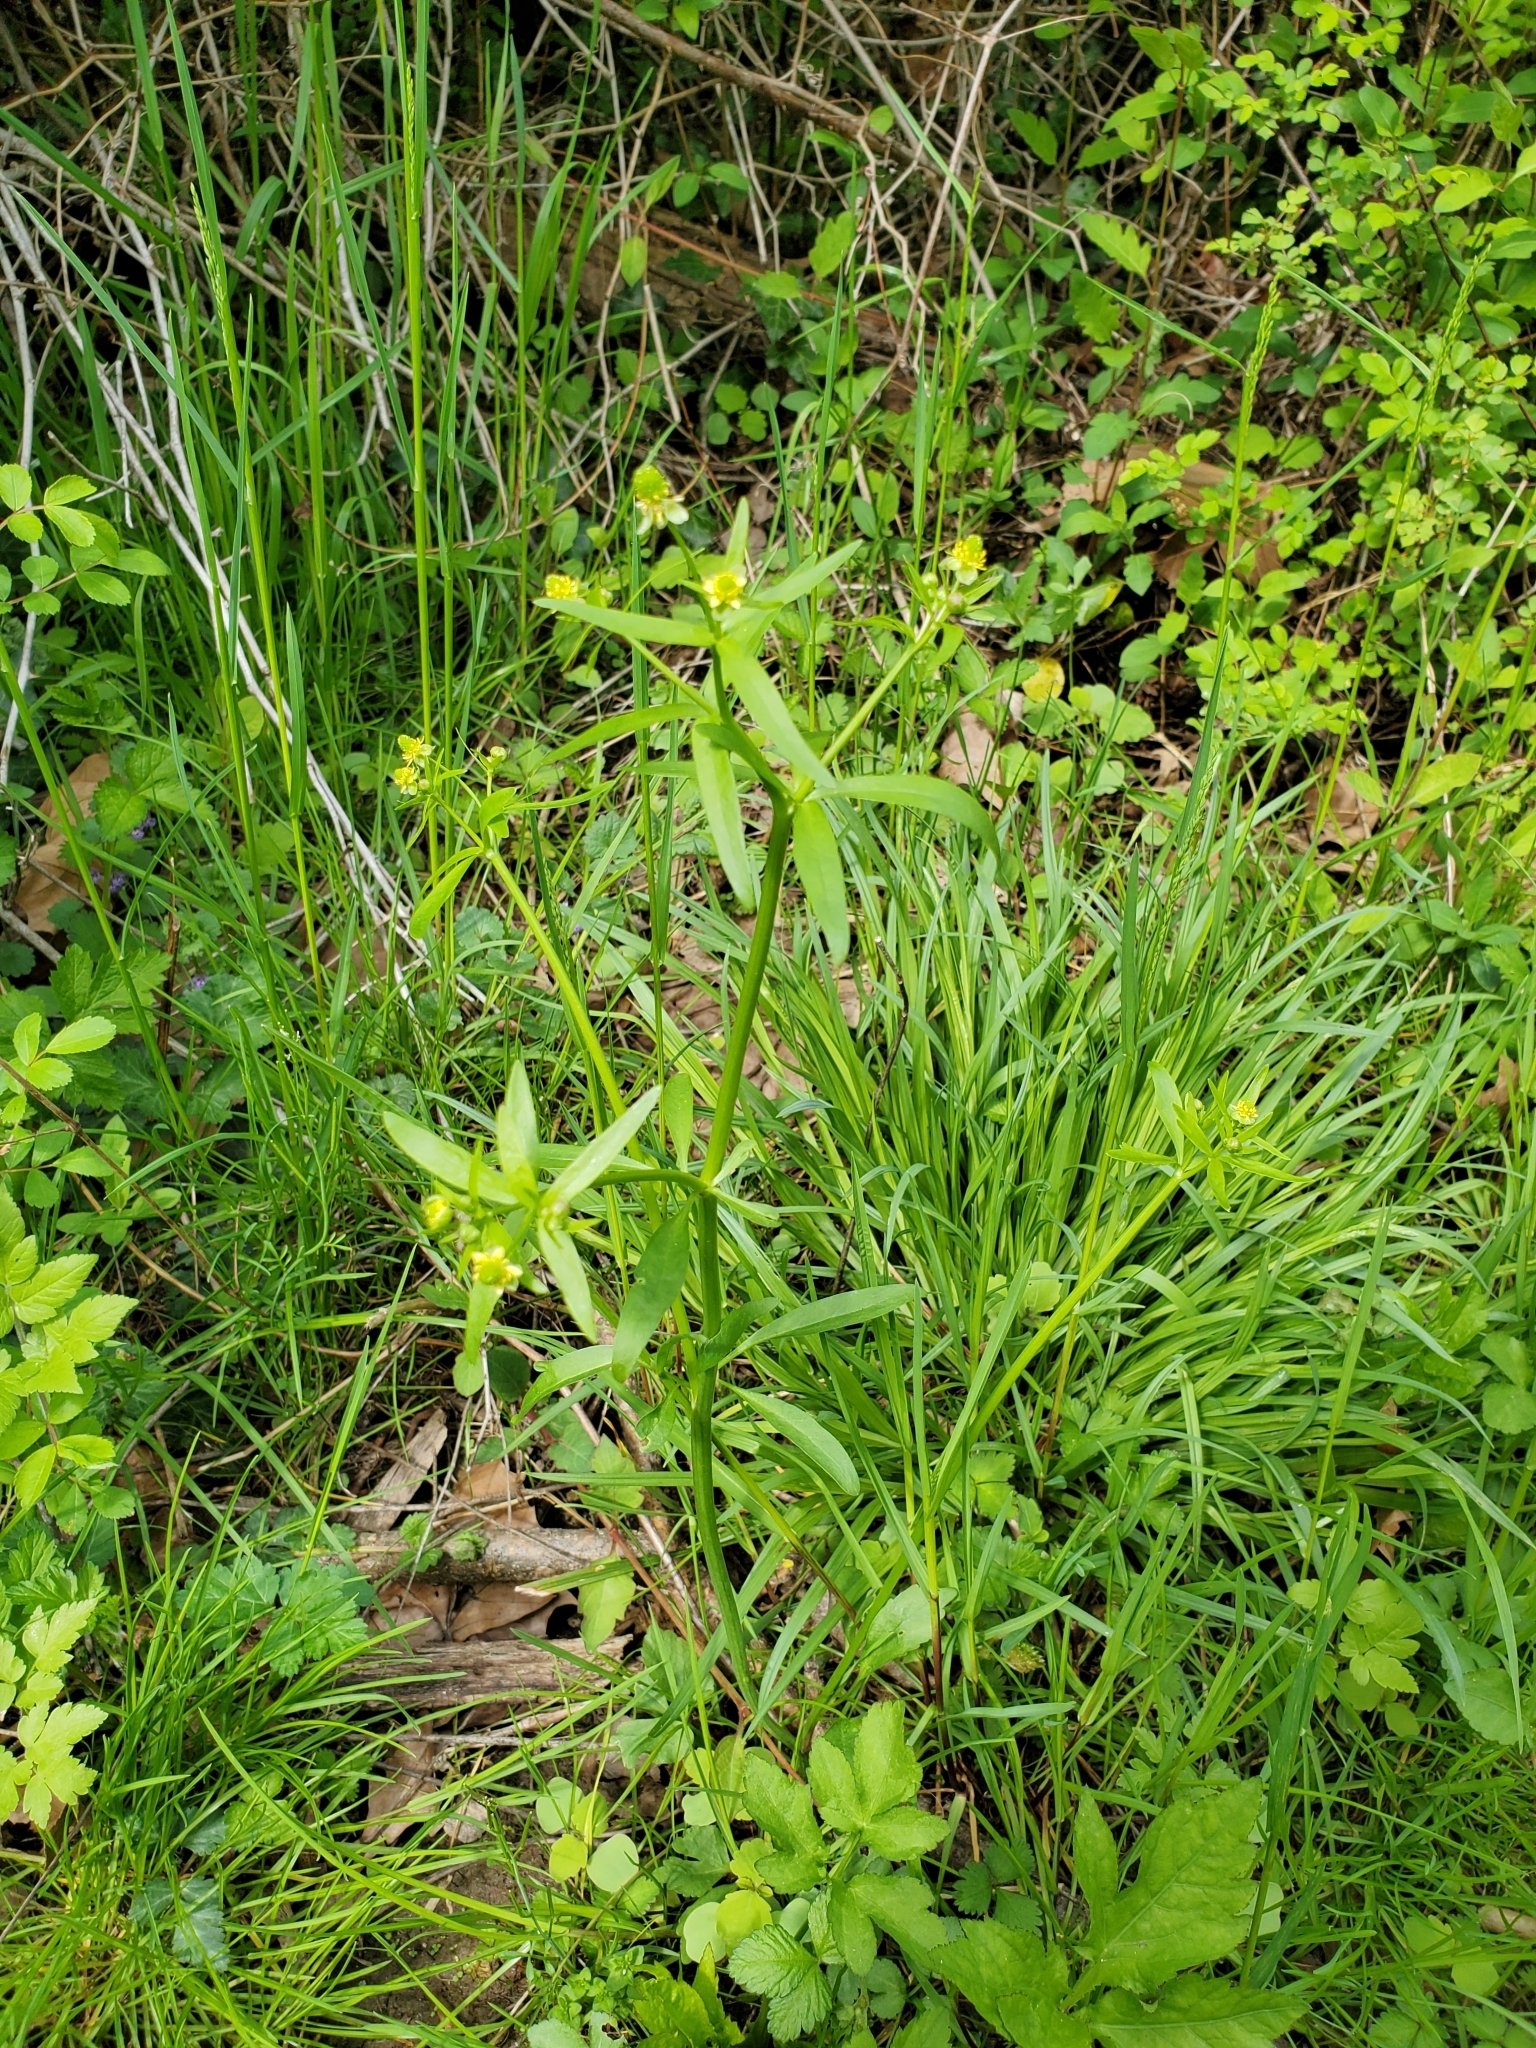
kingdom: Plantae
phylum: Tracheophyta
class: Magnoliopsida
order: Ranunculales
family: Ranunculaceae
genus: Ranunculus
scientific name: Ranunculus abortivus
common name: Early wood buttercup
